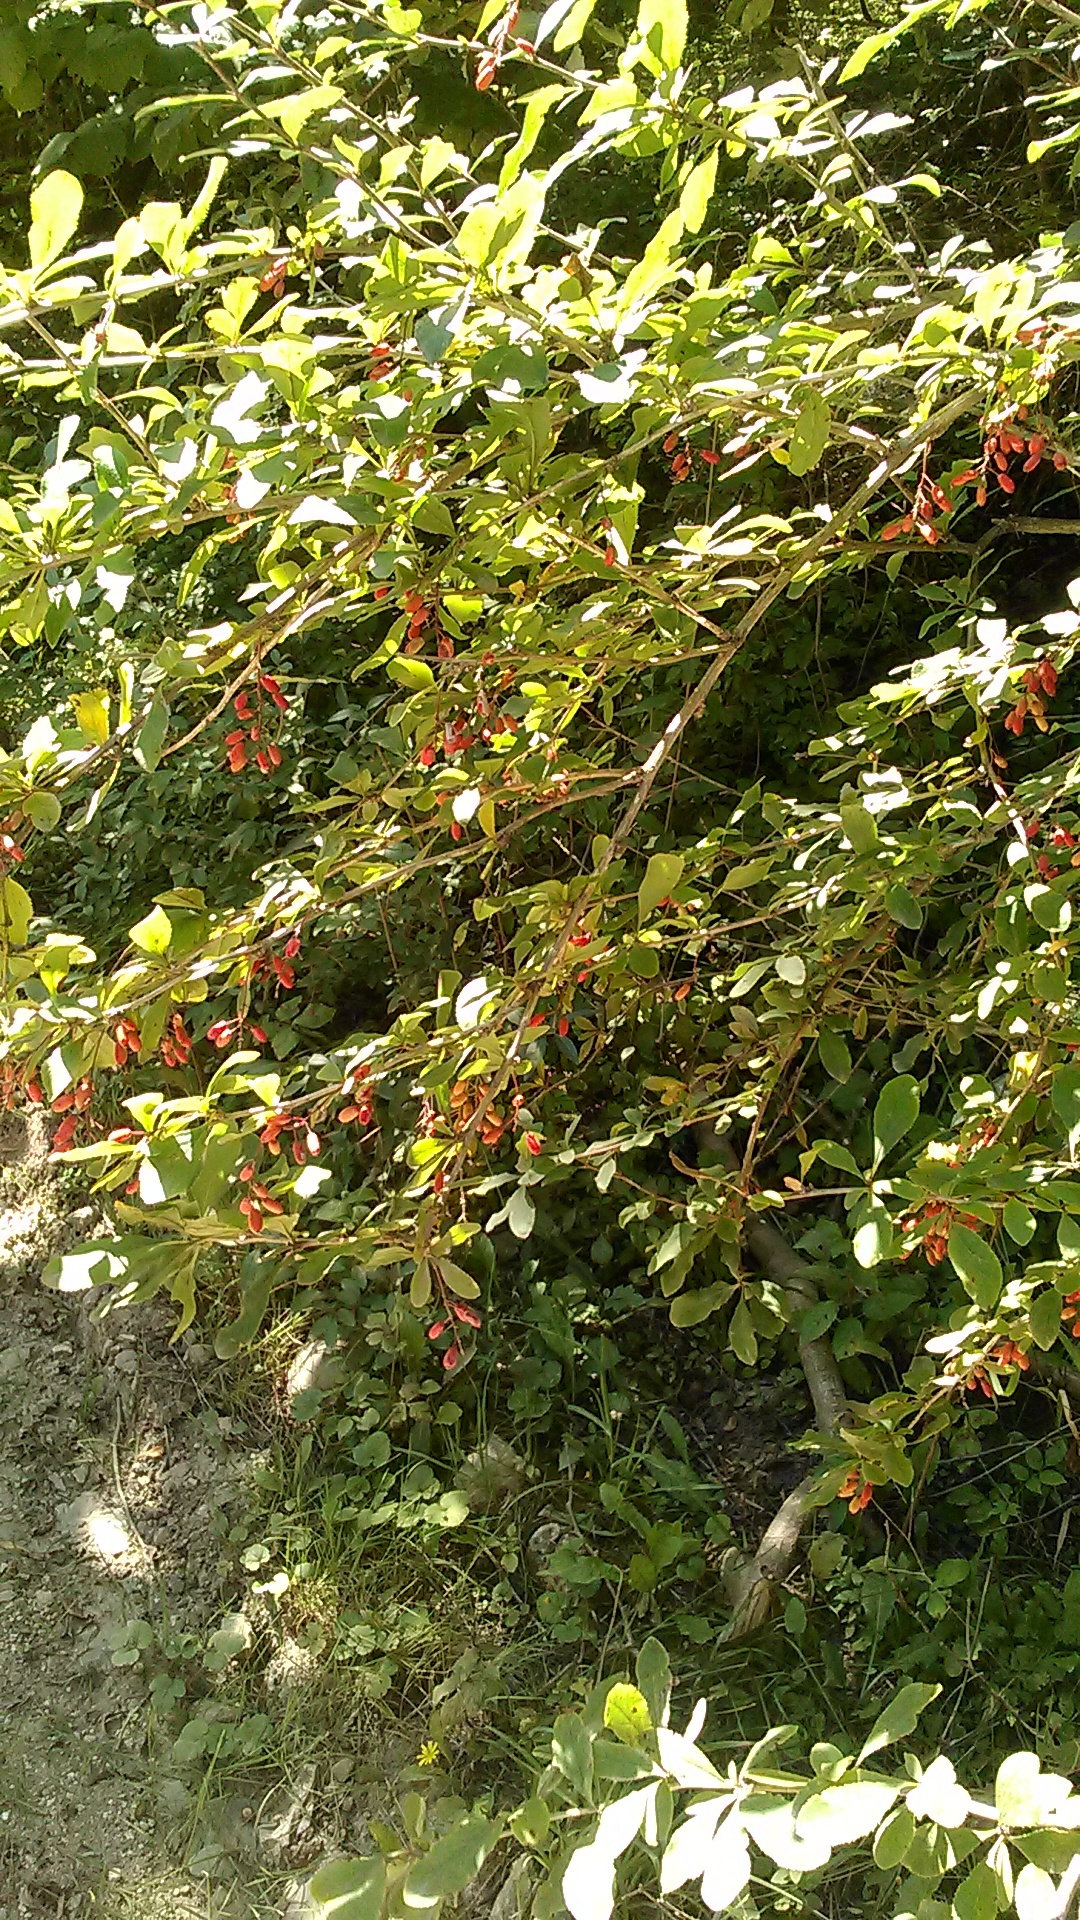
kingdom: Plantae
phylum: Tracheophyta
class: Magnoliopsida
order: Ranunculales
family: Berberidaceae
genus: Berberis
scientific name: Berberis vulgaris
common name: Barberry
